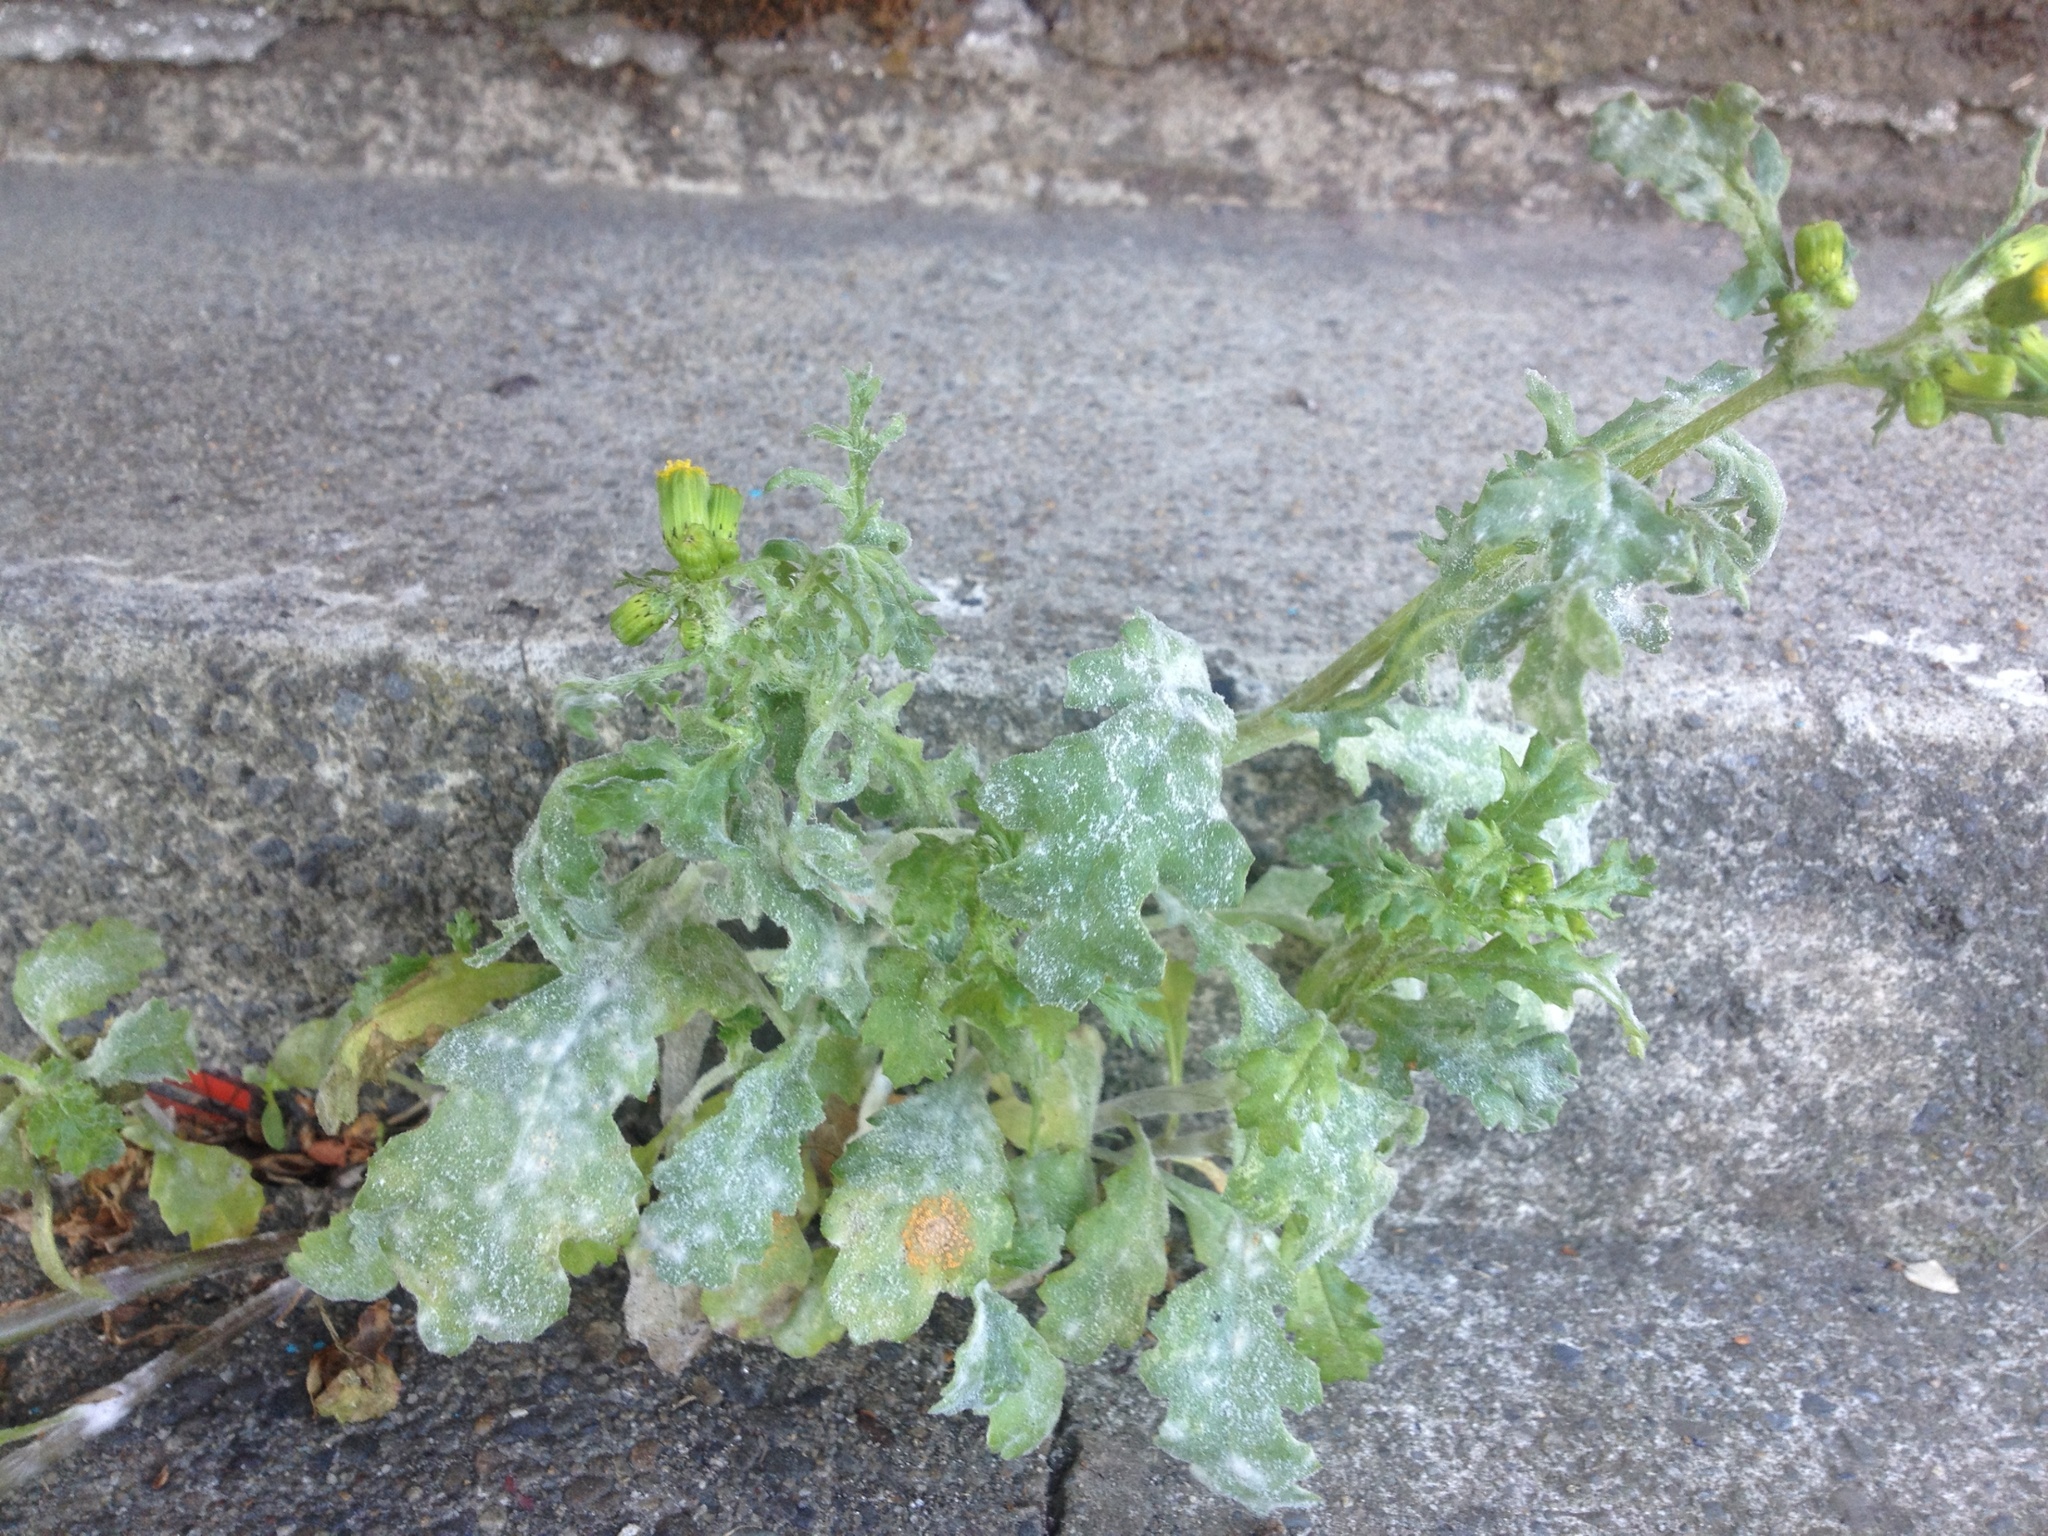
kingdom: Fungi
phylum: Basidiomycota
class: Pucciniomycetes
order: Pucciniales
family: Pucciniaceae
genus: Puccinia
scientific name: Puccinia lagenophorae
